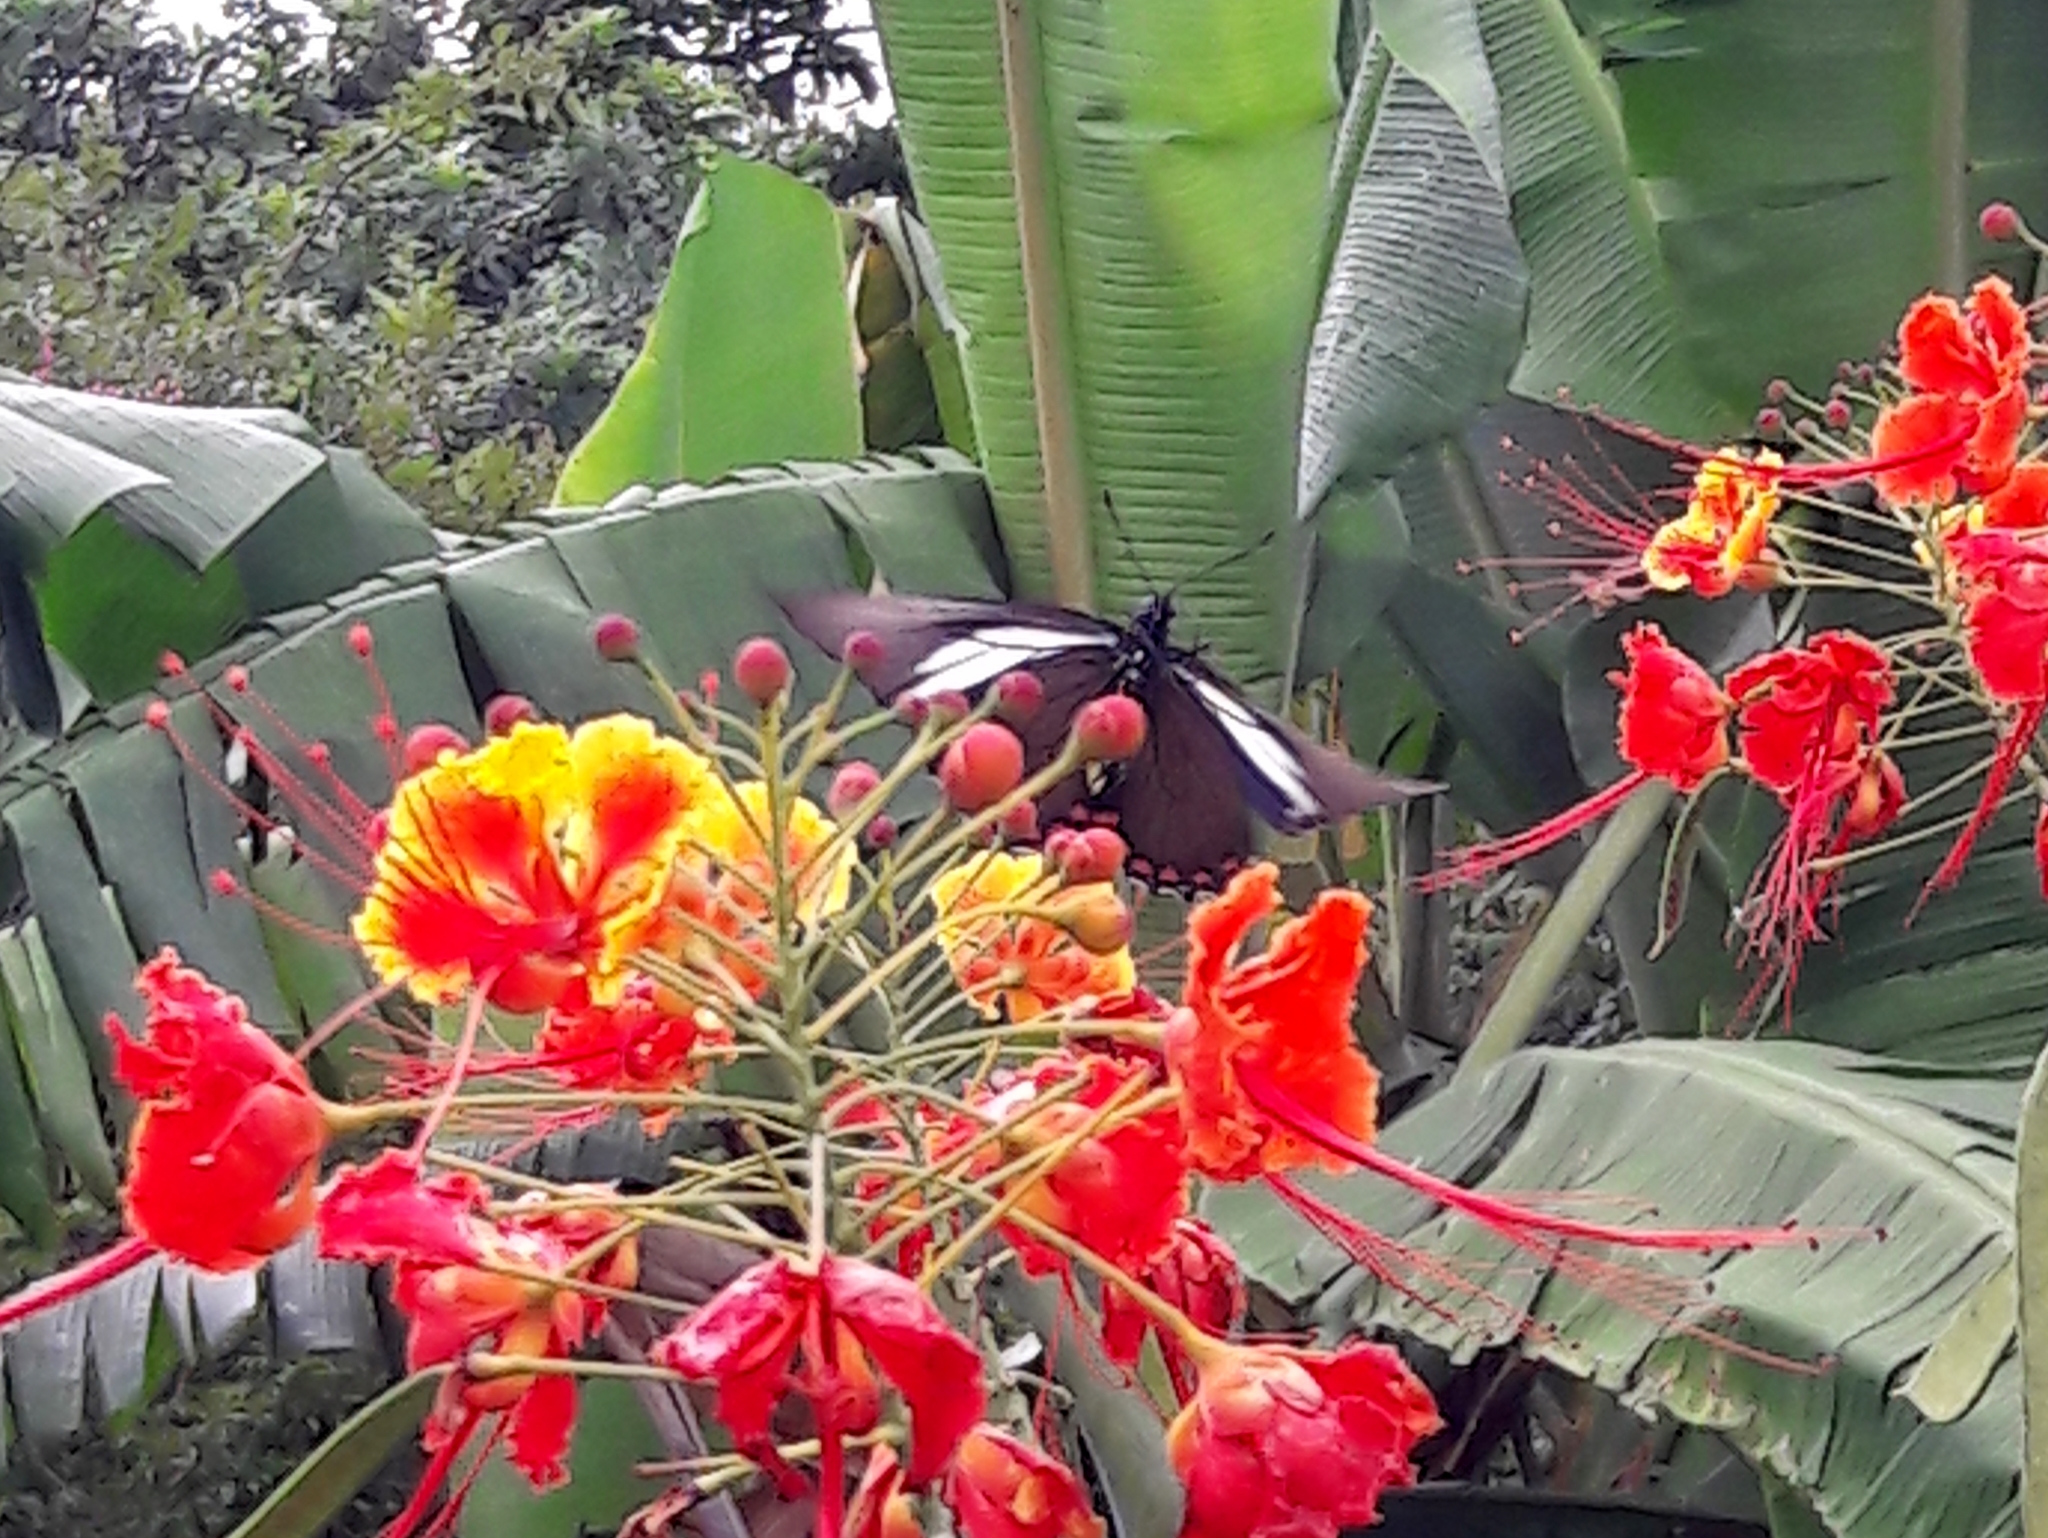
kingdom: Animalia
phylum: Arthropoda
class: Insecta
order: Lepidoptera
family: Papilionidae
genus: Battus
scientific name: Battus crassus
